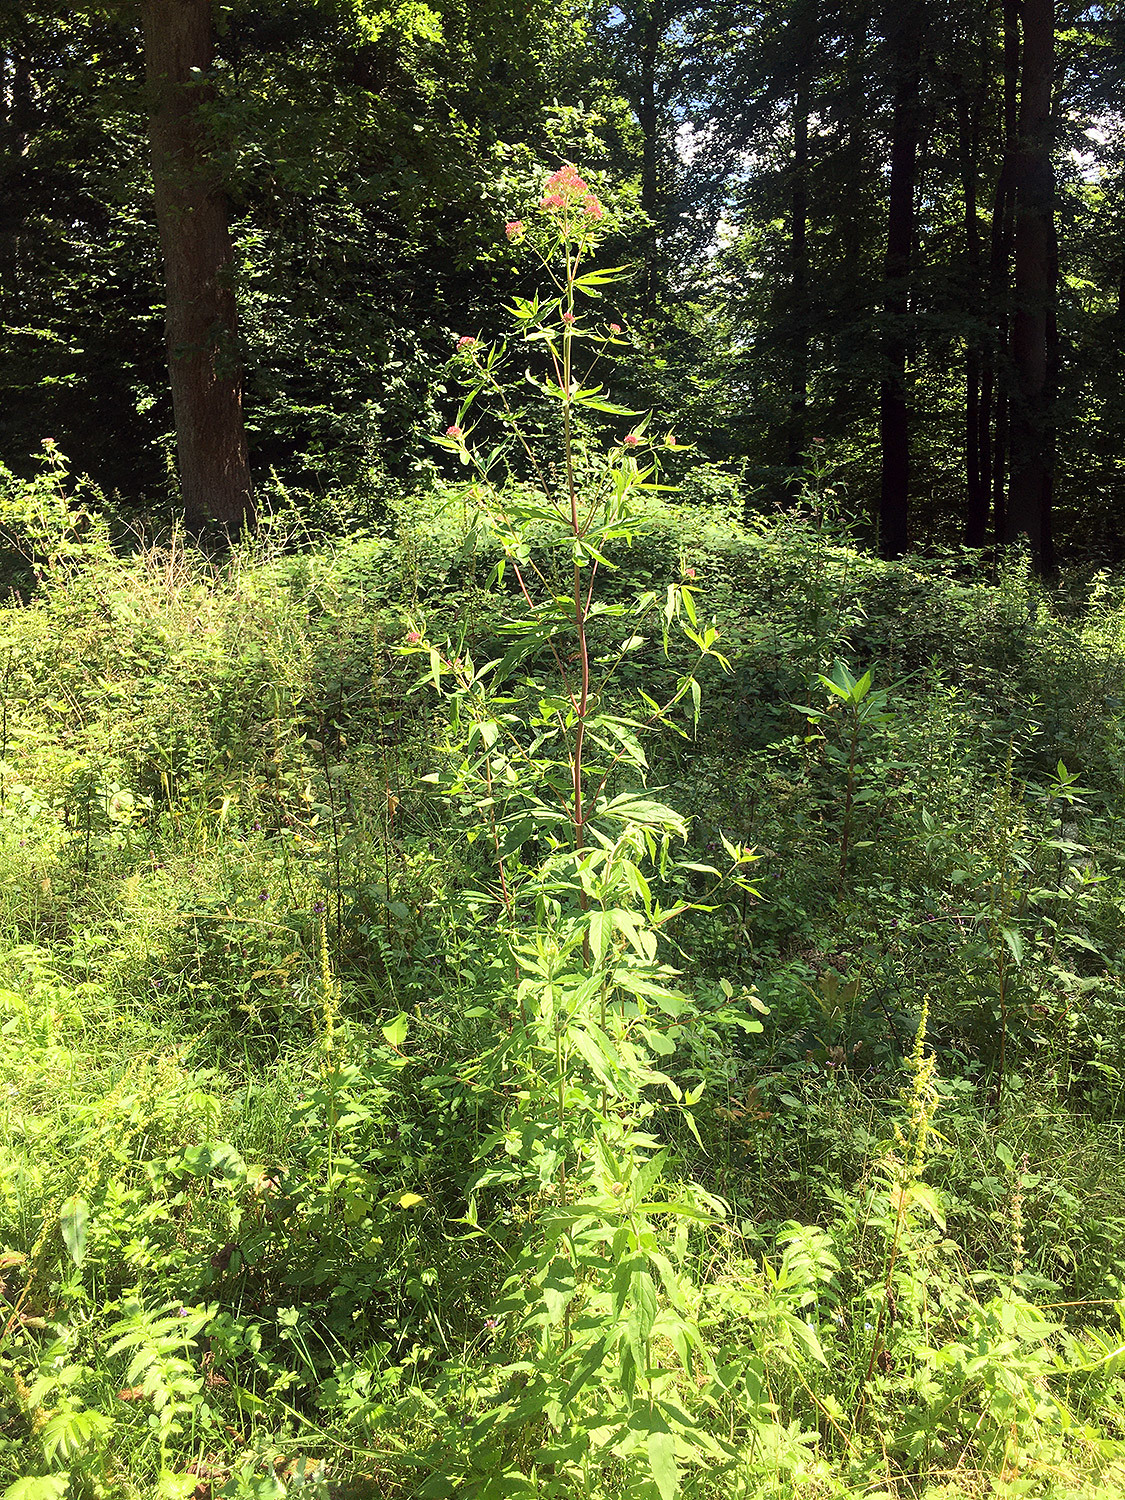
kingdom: Plantae
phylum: Tracheophyta
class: Magnoliopsida
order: Asterales
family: Asteraceae
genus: Eupatorium
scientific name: Eupatorium cannabinum
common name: Hemp-agrimony
